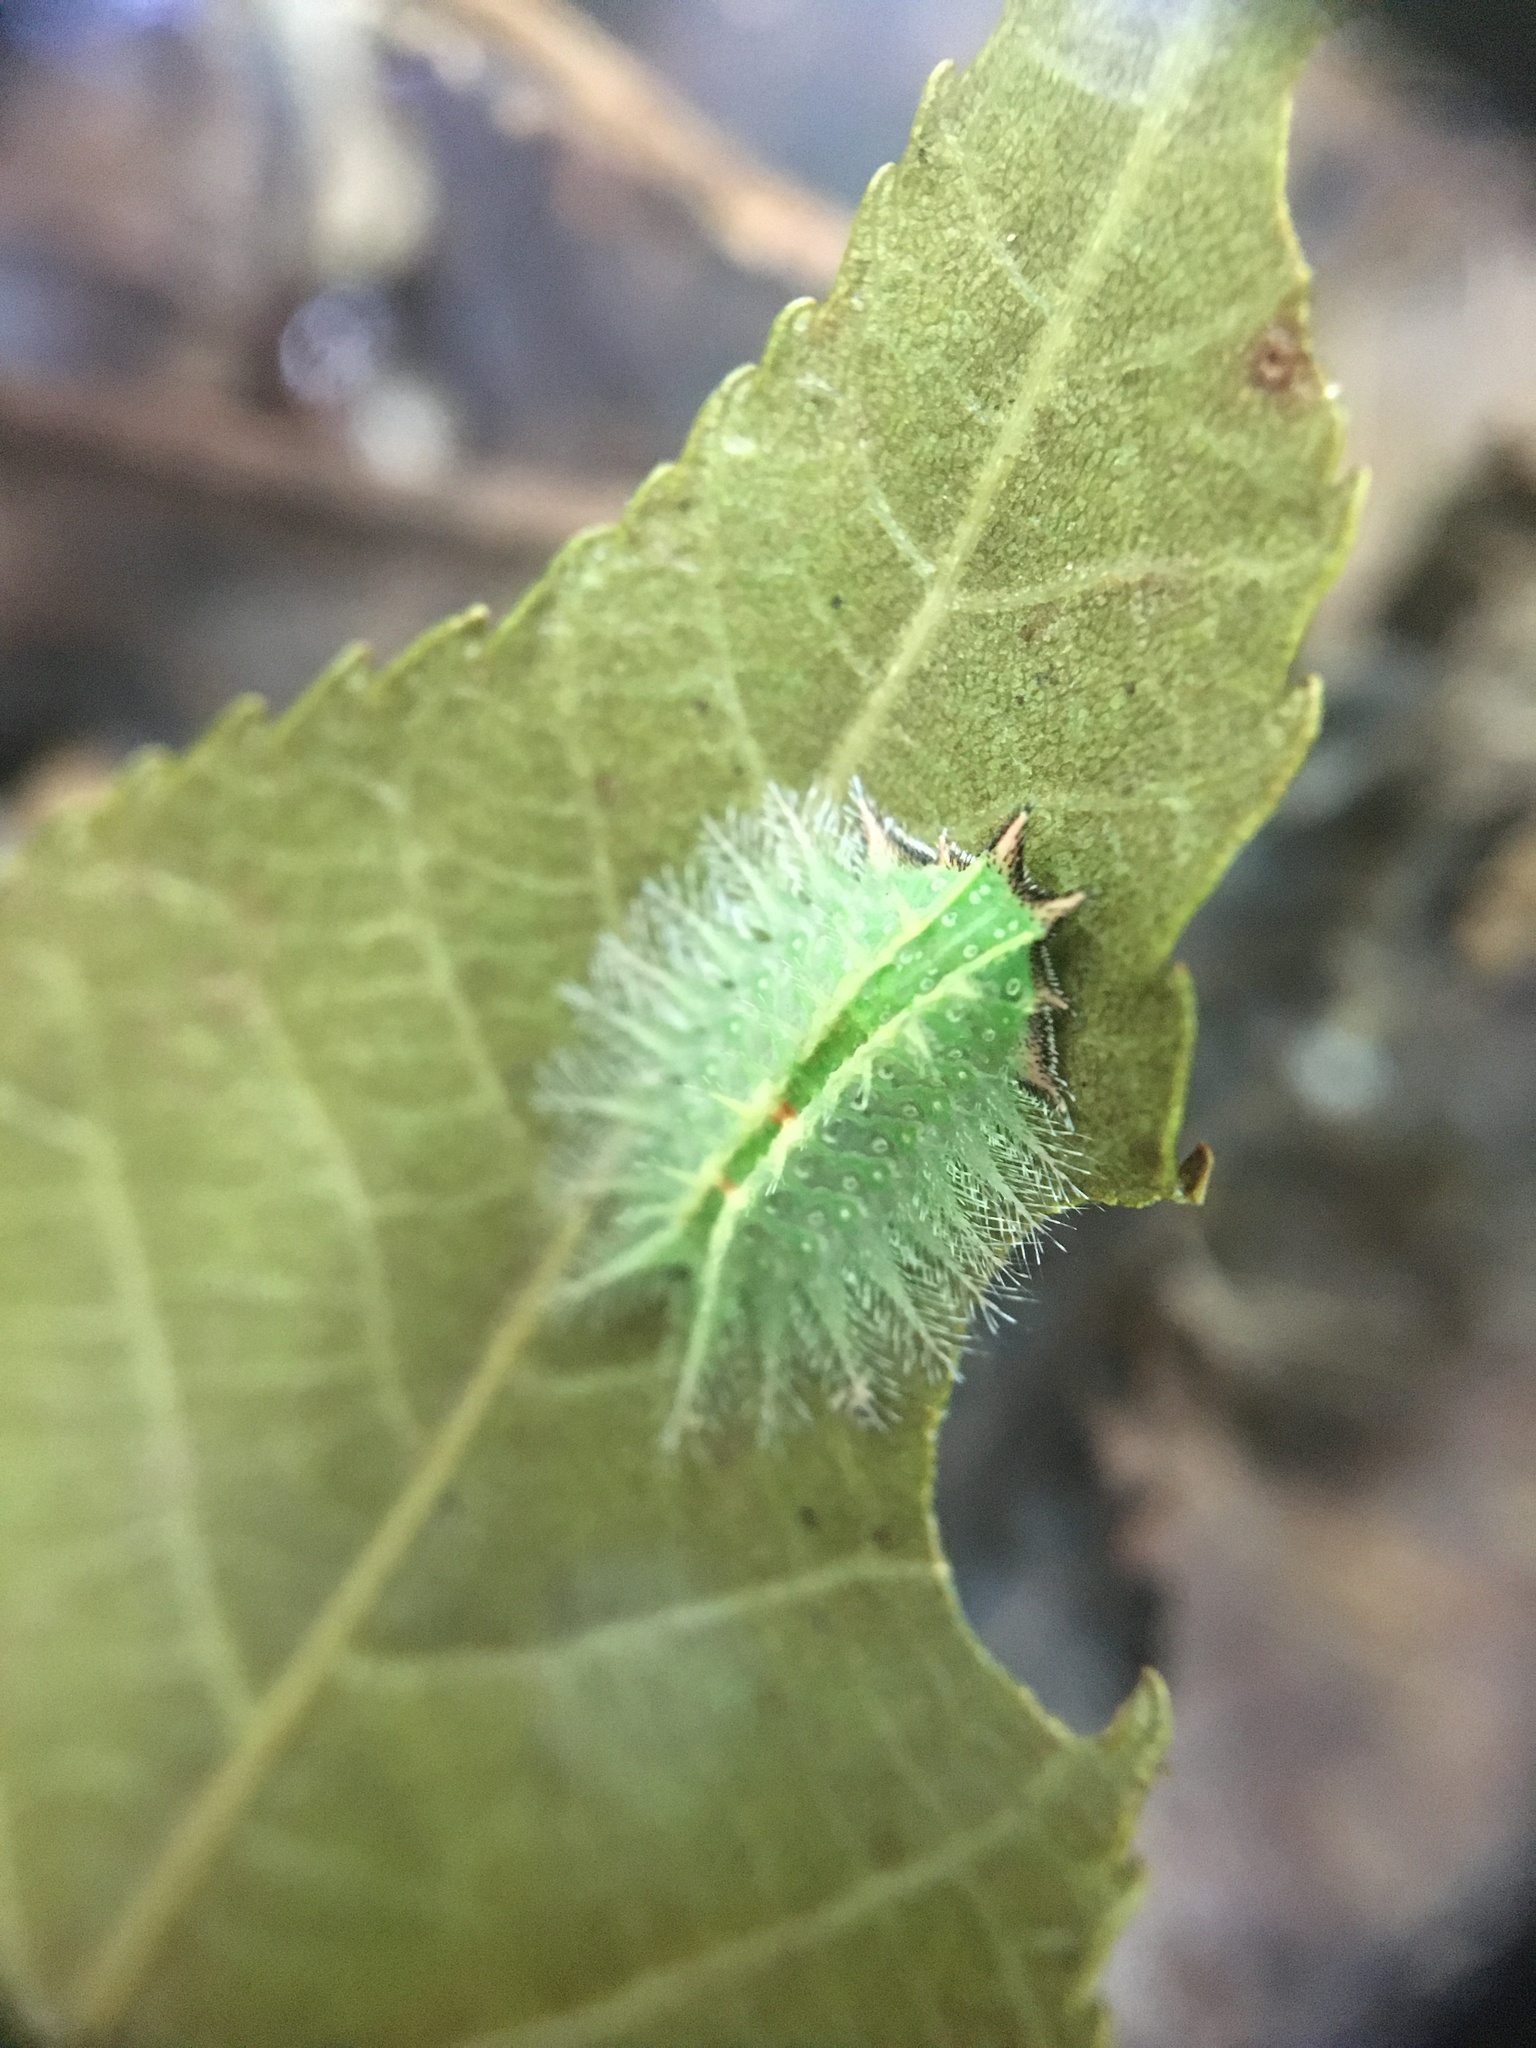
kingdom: Animalia
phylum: Arthropoda
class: Insecta
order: Lepidoptera
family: Limacodidae
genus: Isa
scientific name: Isa textula
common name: Crowned slug moth
